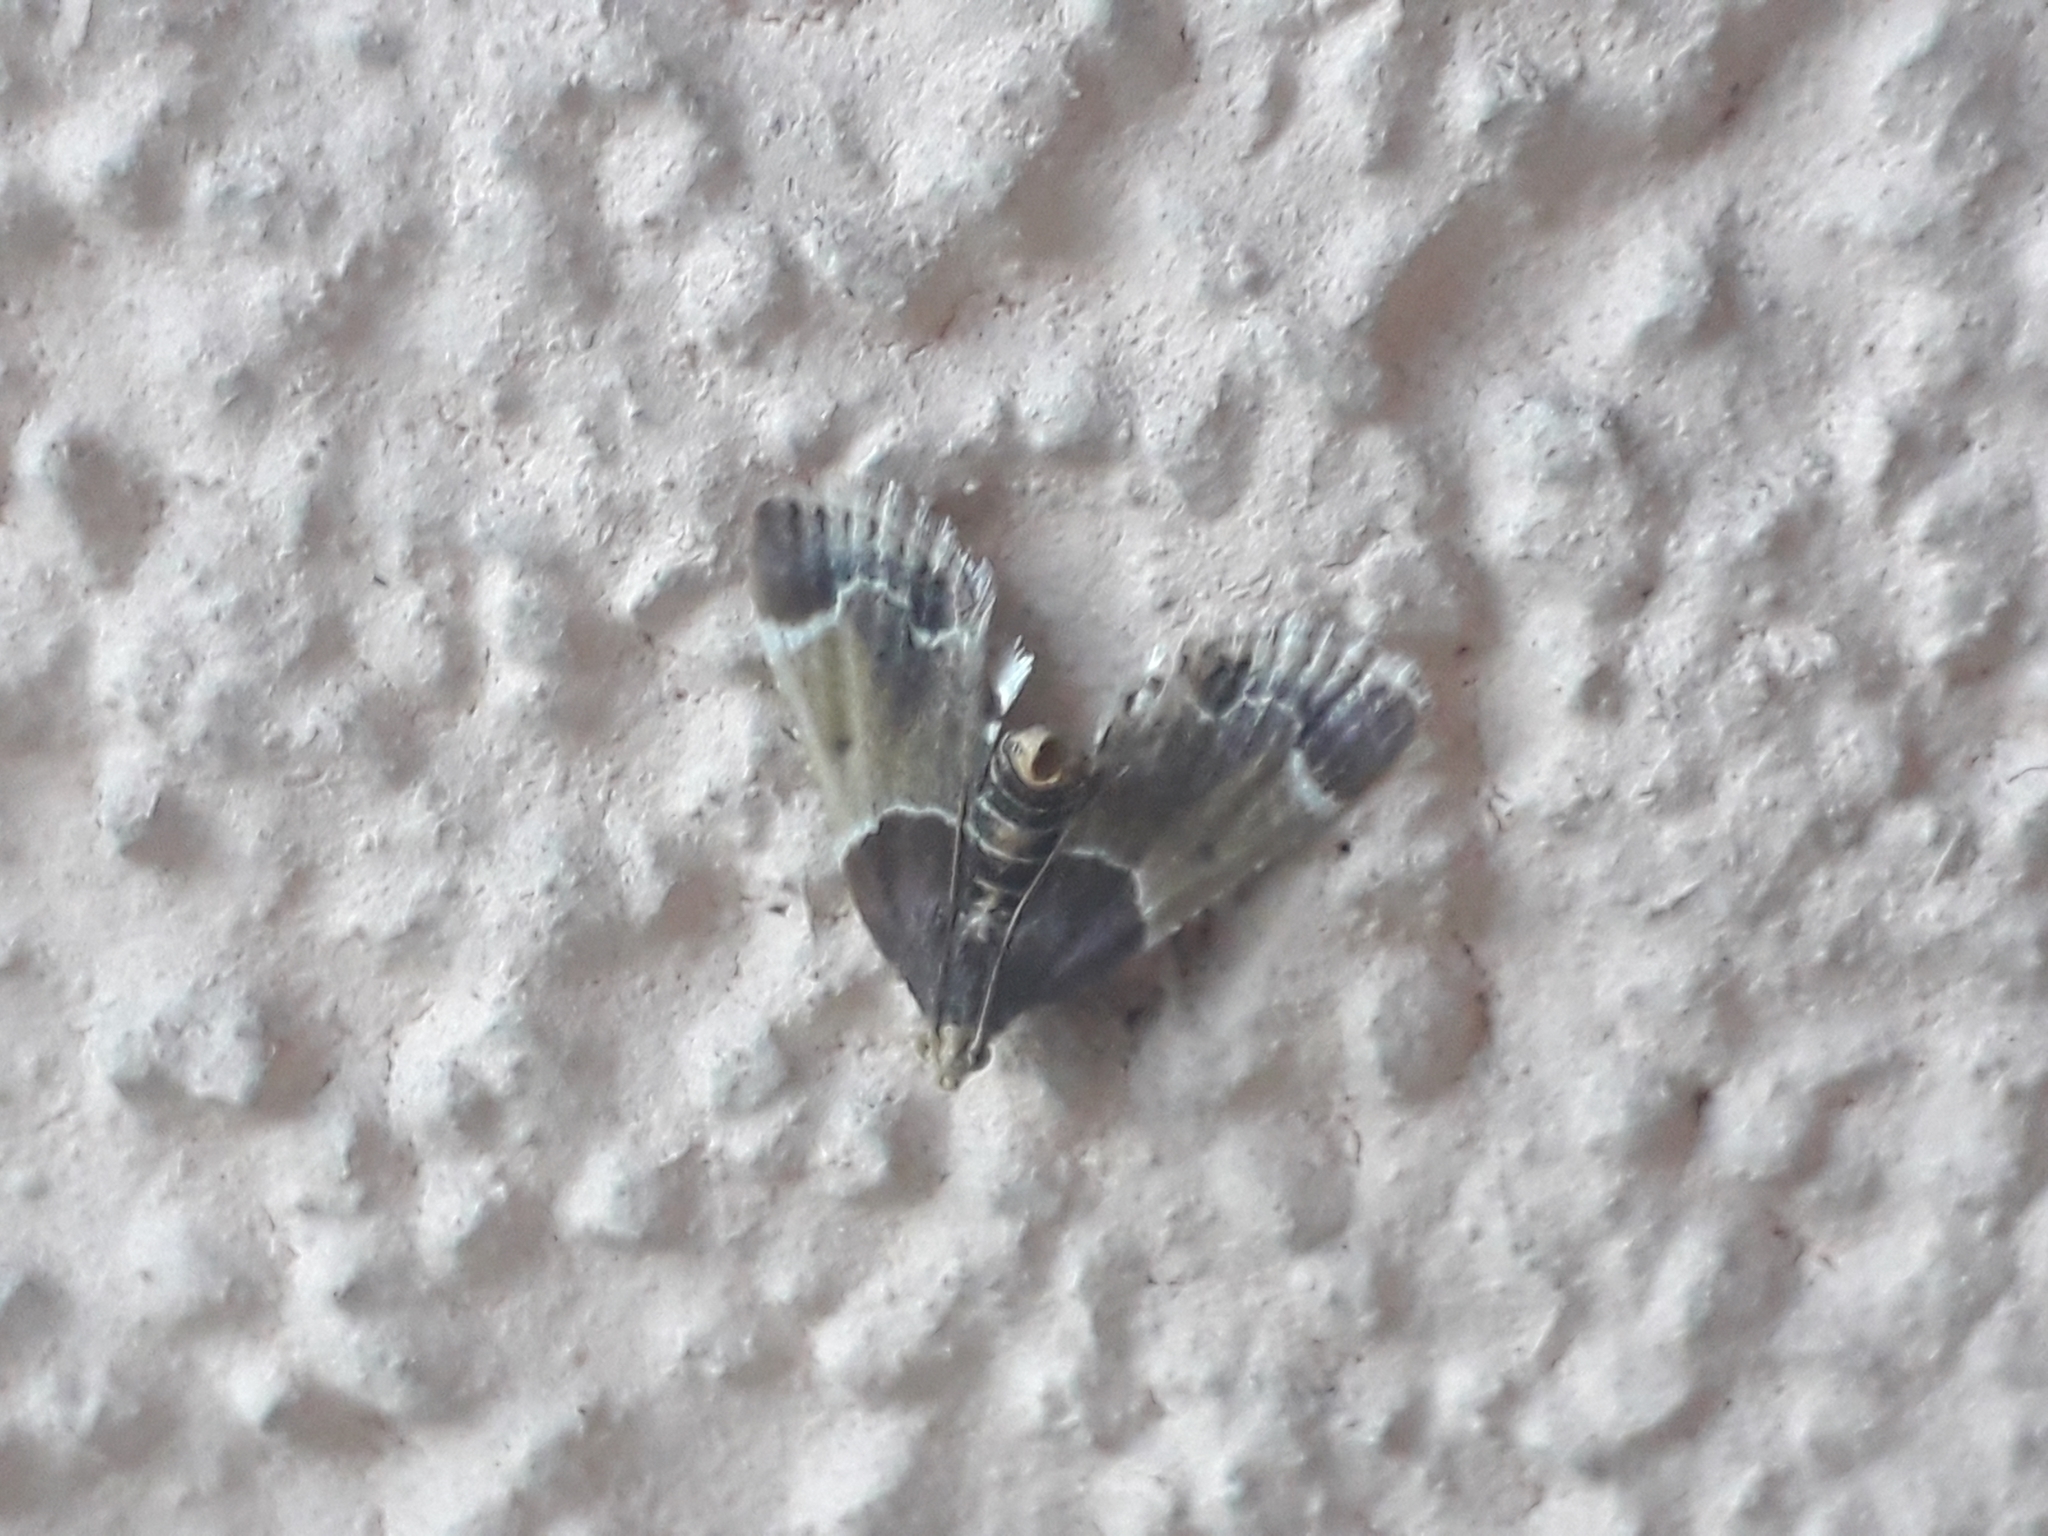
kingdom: Animalia
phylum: Arthropoda
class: Insecta
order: Lepidoptera
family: Pyralidae
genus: Pyralis
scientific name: Pyralis farinalis
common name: Meal moth
